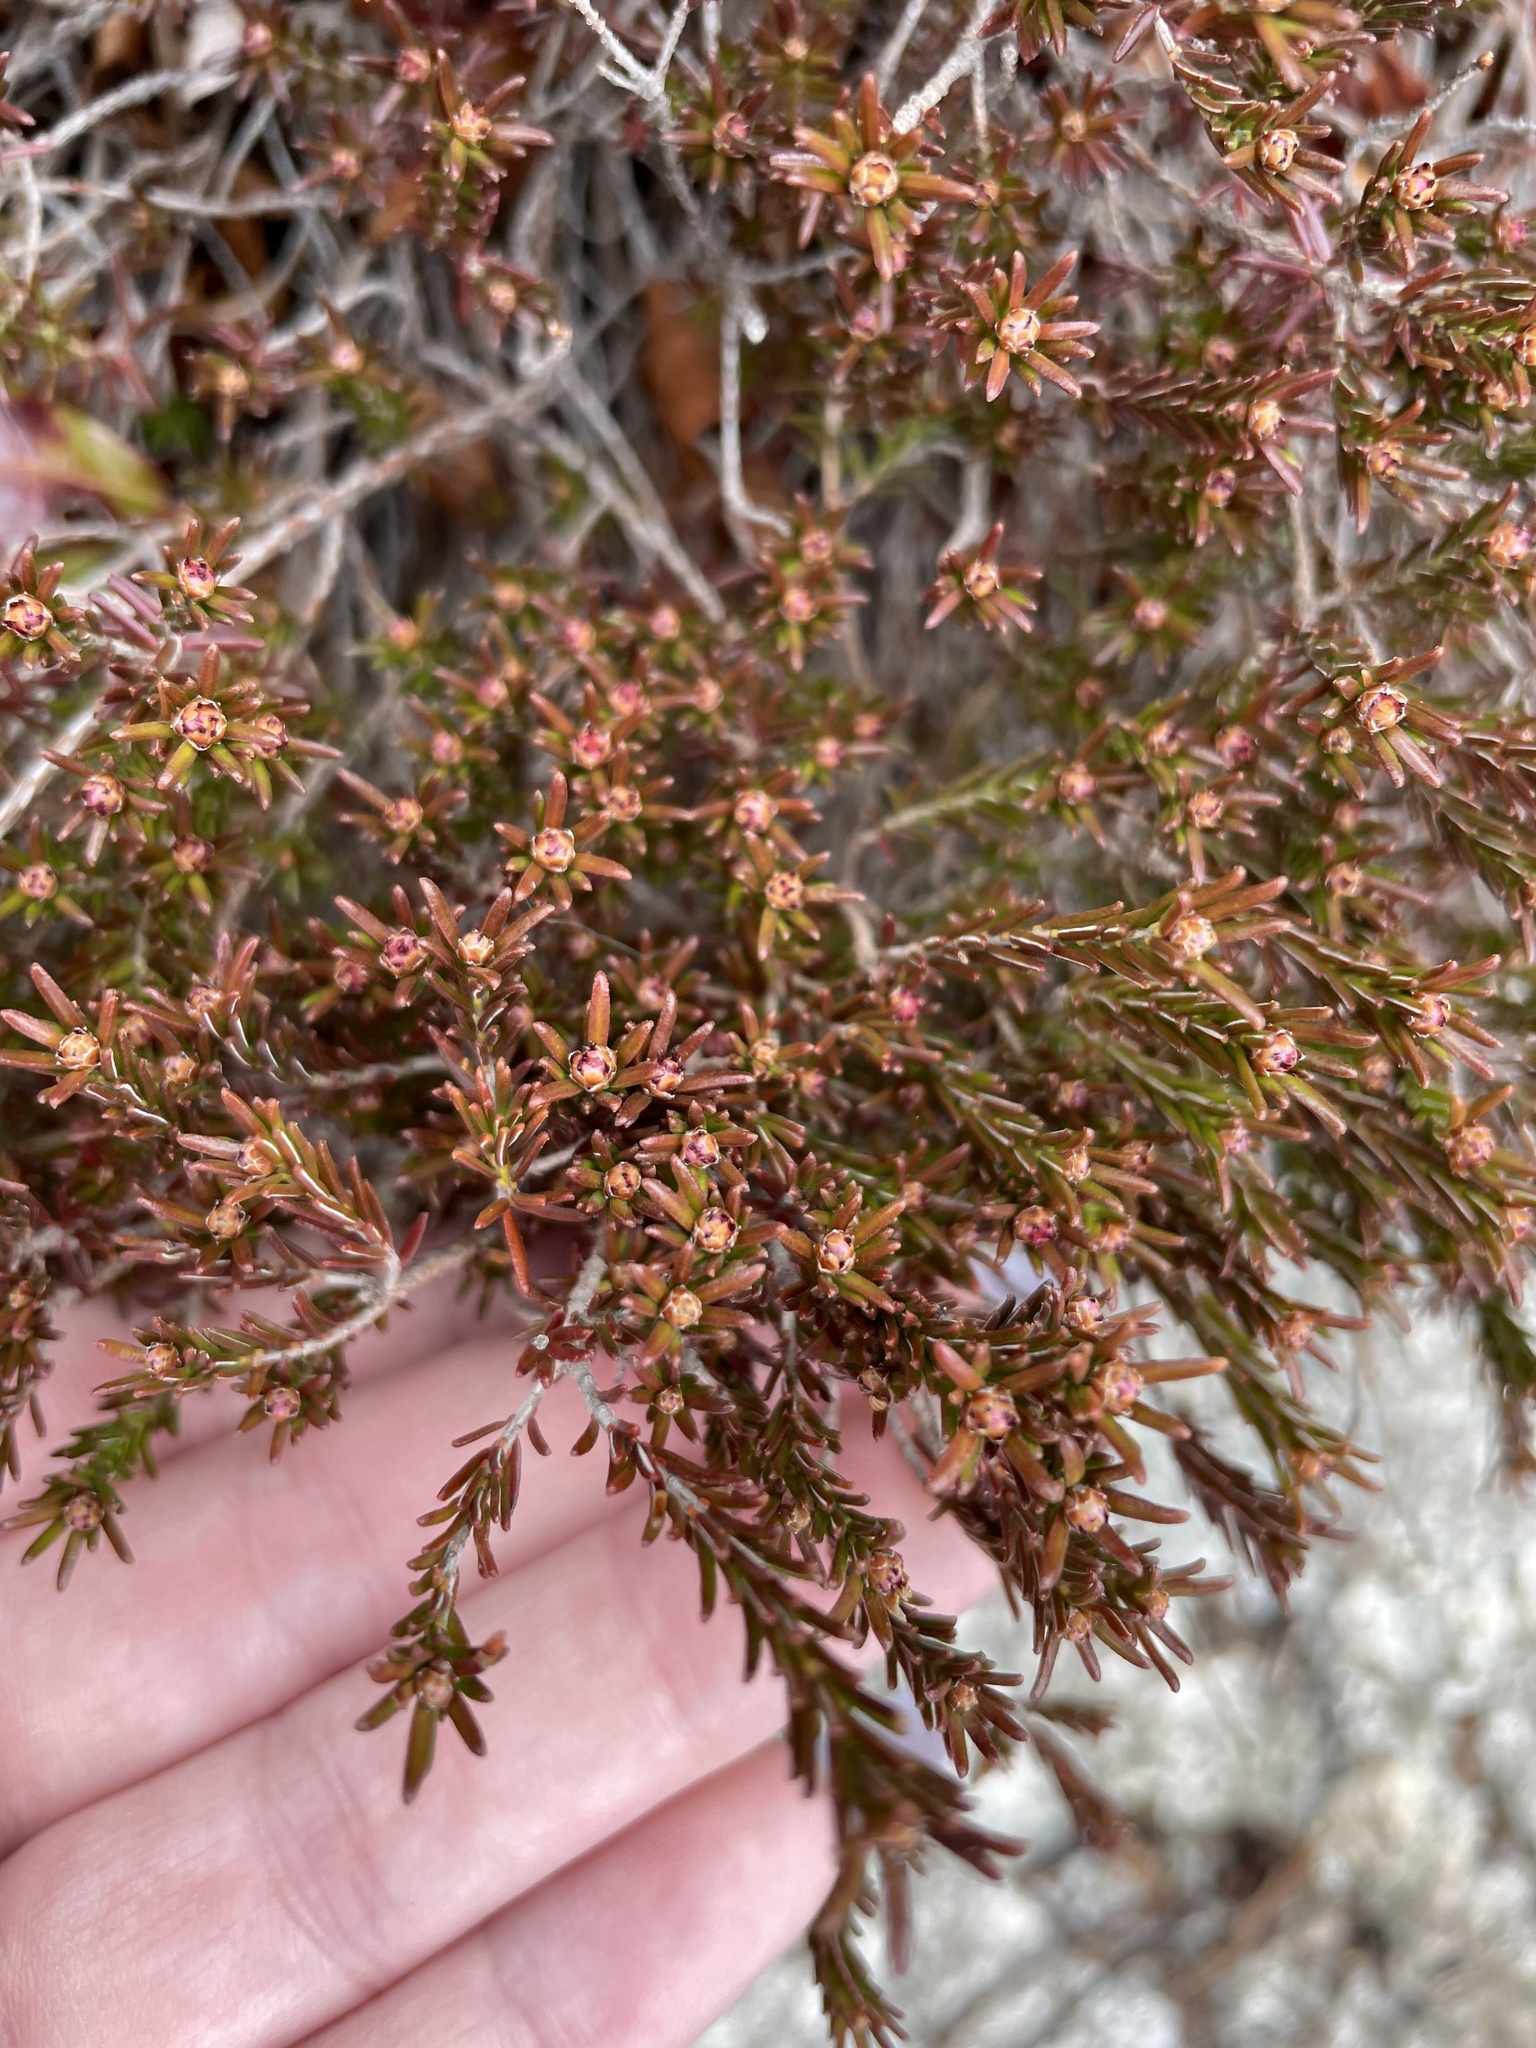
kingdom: Plantae
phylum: Tracheophyta
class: Magnoliopsida
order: Ericales
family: Ericaceae
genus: Corema
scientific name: Corema conradii
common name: Broom-crowberry
